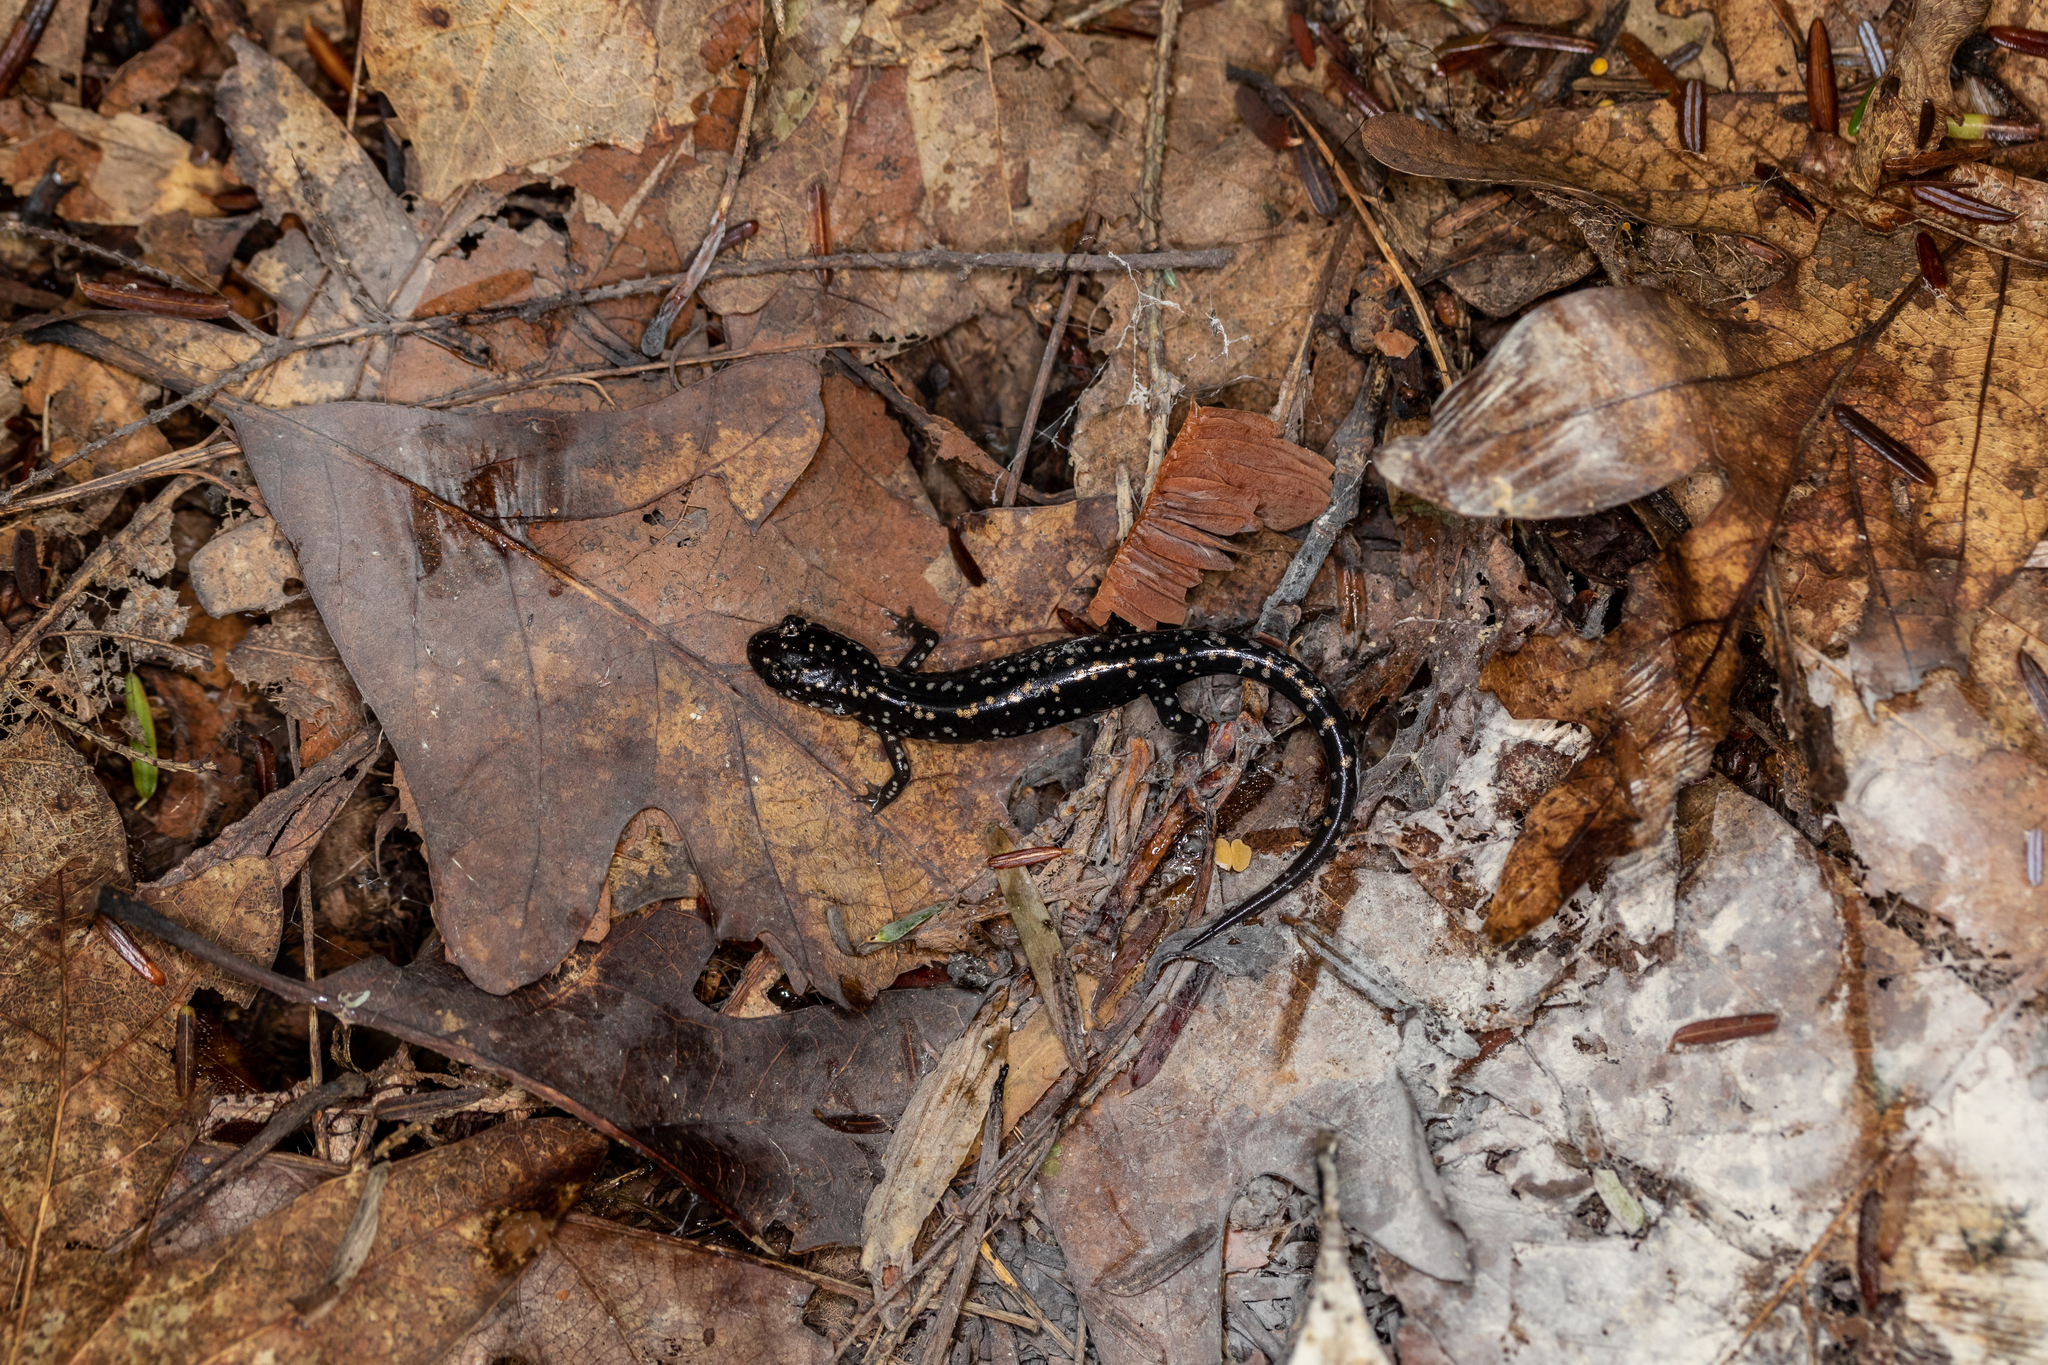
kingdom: Animalia
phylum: Chordata
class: Amphibia
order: Caudata
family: Plethodontidae
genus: Plethodon
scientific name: Plethodon glutinosus
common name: Northern slimy salamander
